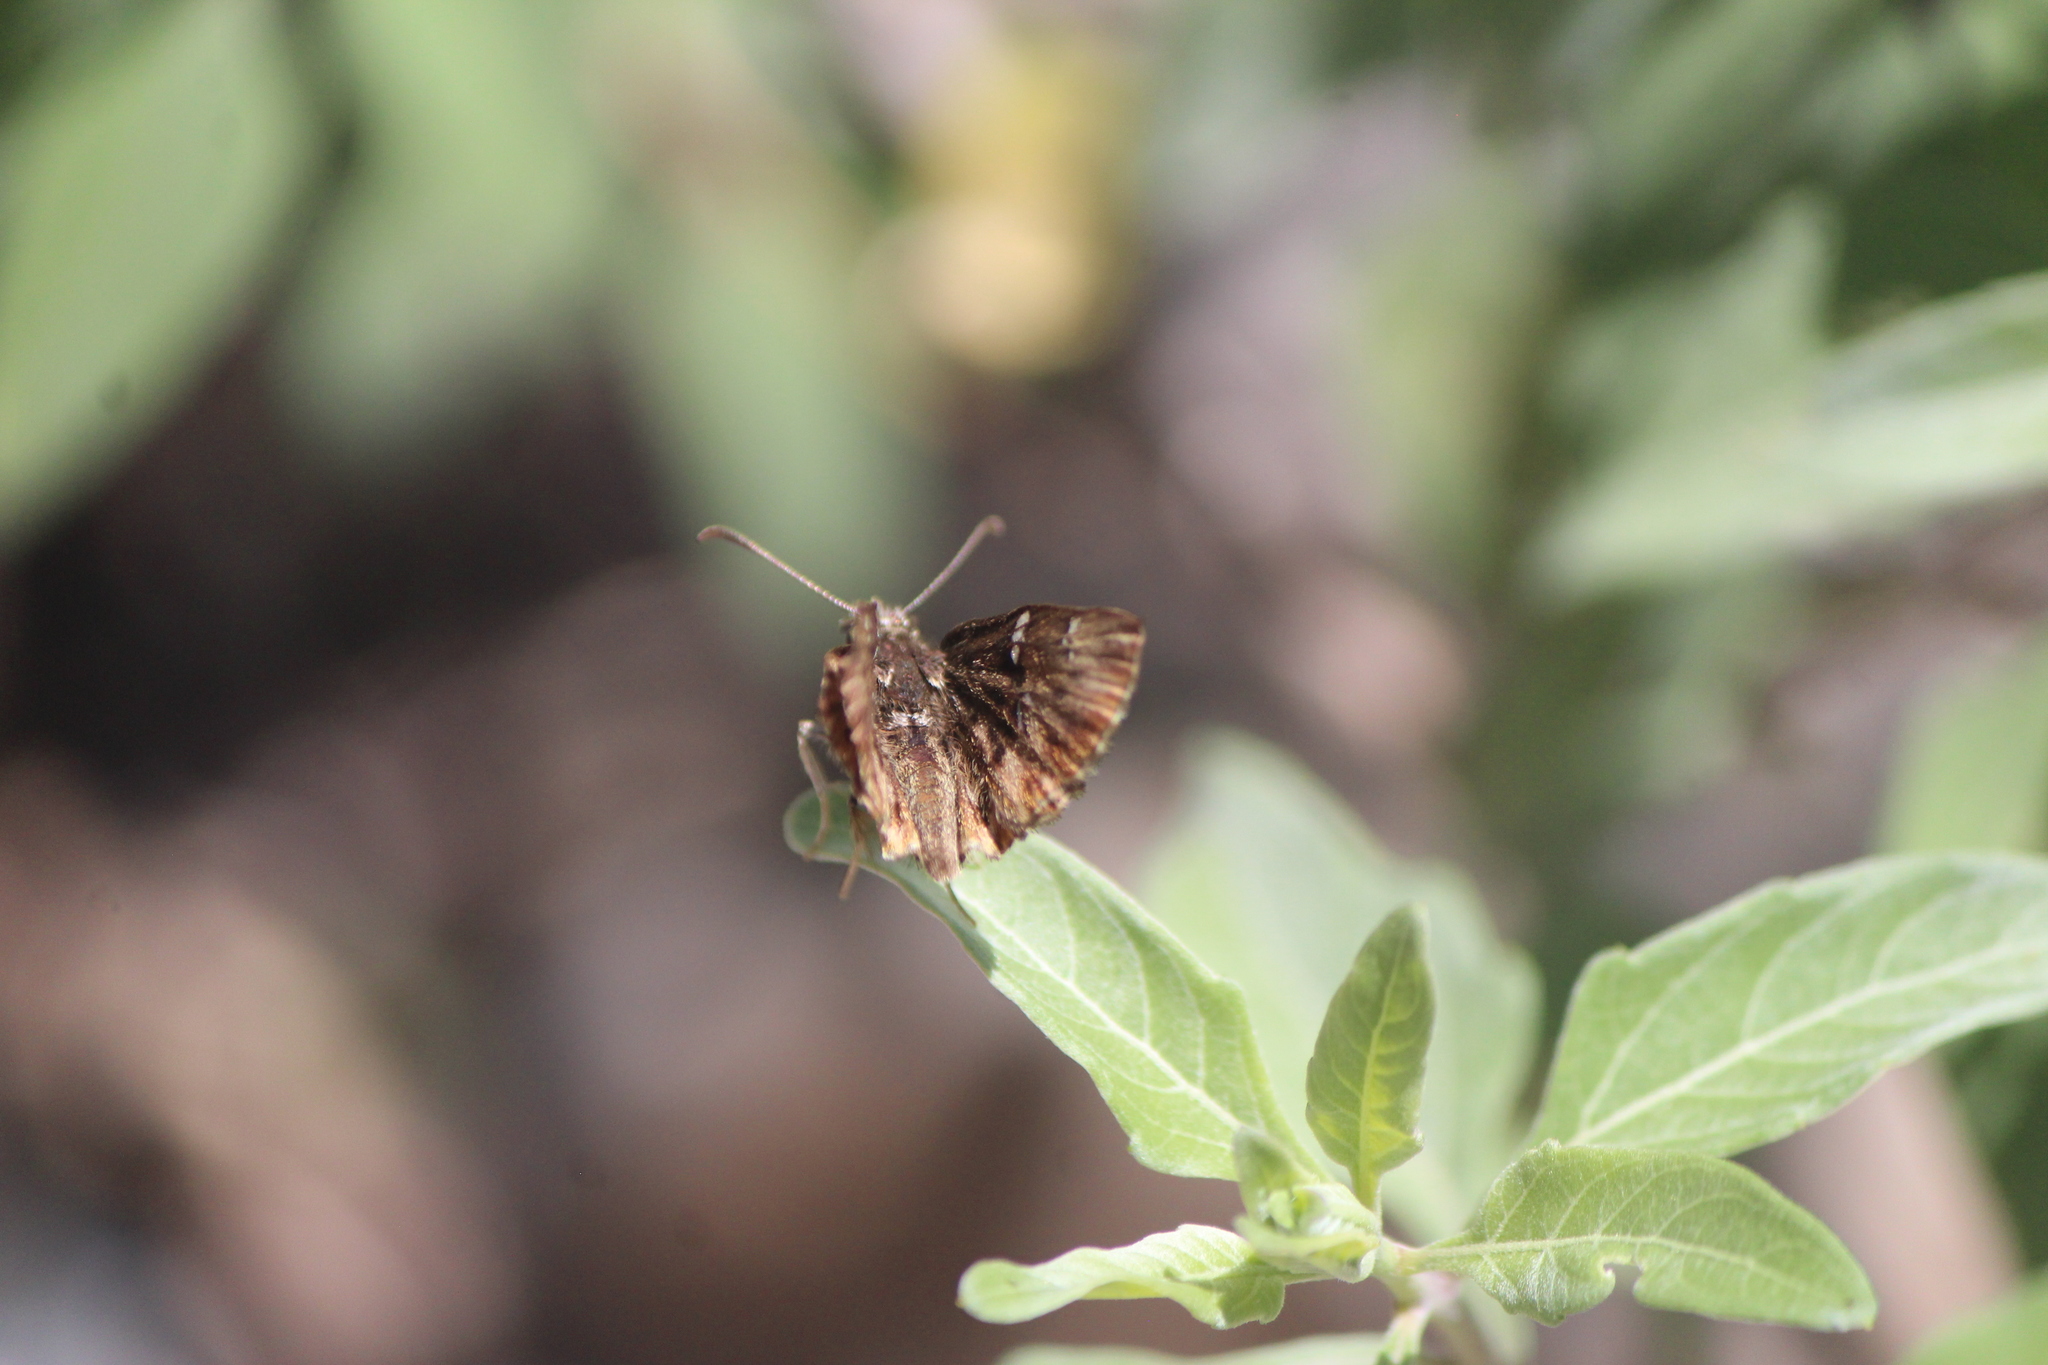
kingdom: Animalia
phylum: Arthropoda
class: Insecta
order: Lepidoptera
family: Hesperiidae
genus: Celotes
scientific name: Celotes spurcus
